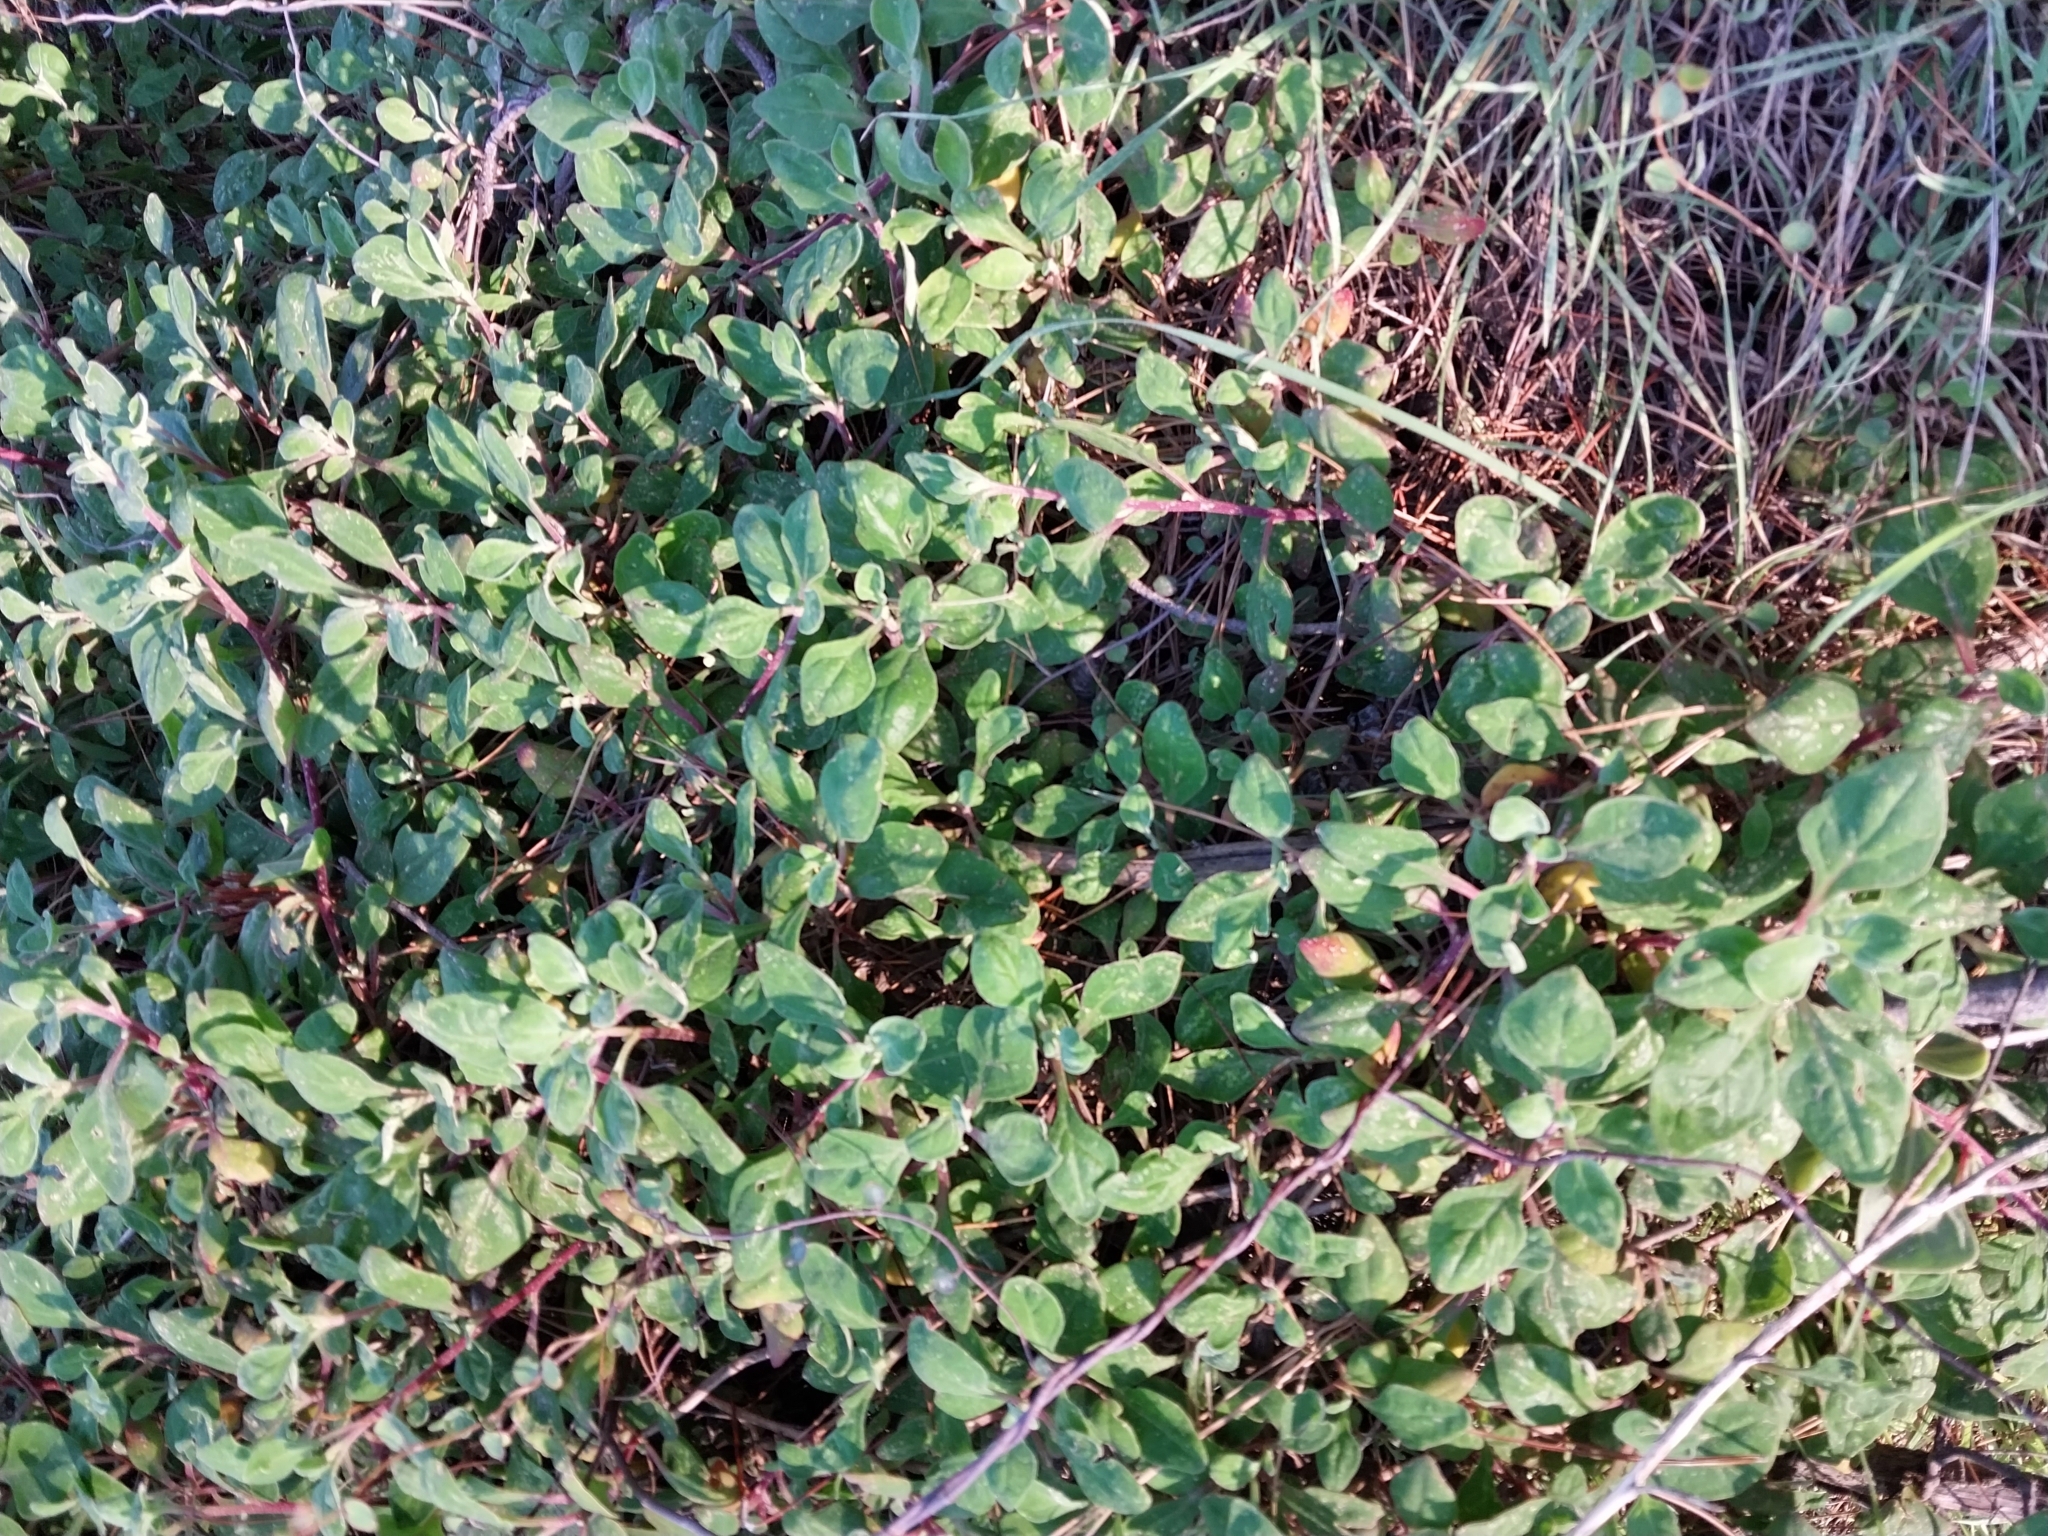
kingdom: Plantae
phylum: Tracheophyta
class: Magnoliopsida
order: Caryophyllales
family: Aizoaceae
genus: Tetragonia
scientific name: Tetragonia implexicoma
